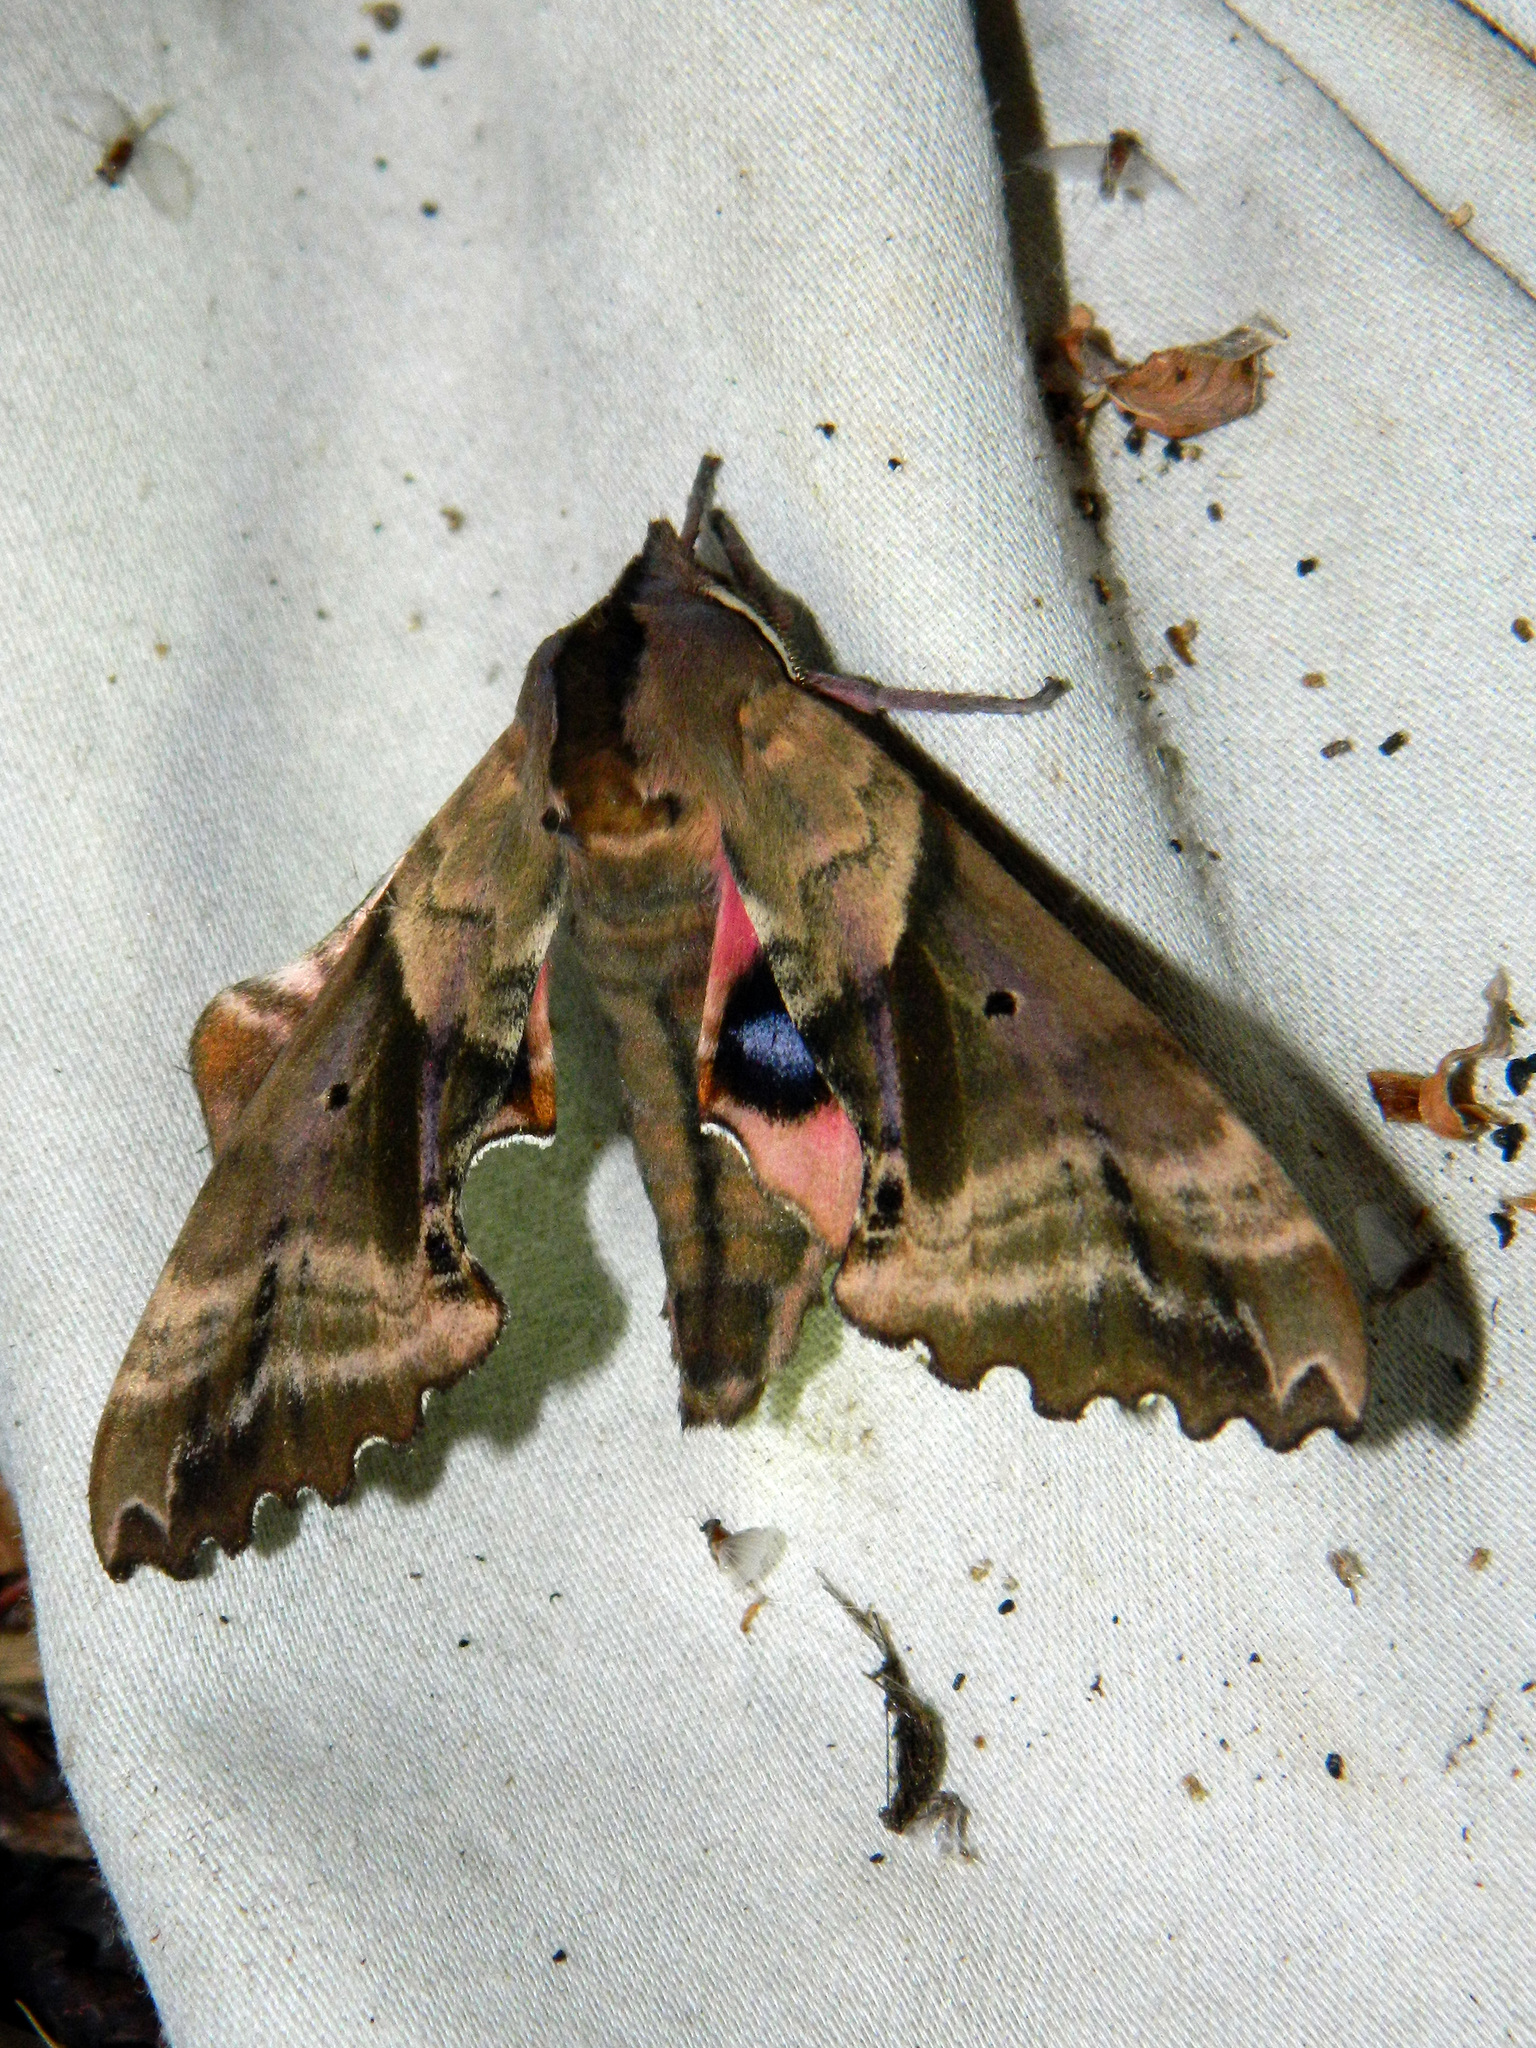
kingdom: Animalia
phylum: Arthropoda
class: Insecta
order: Lepidoptera
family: Sphingidae
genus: Paonias
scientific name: Paonias excaecata
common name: Blind-eyed sphinx
